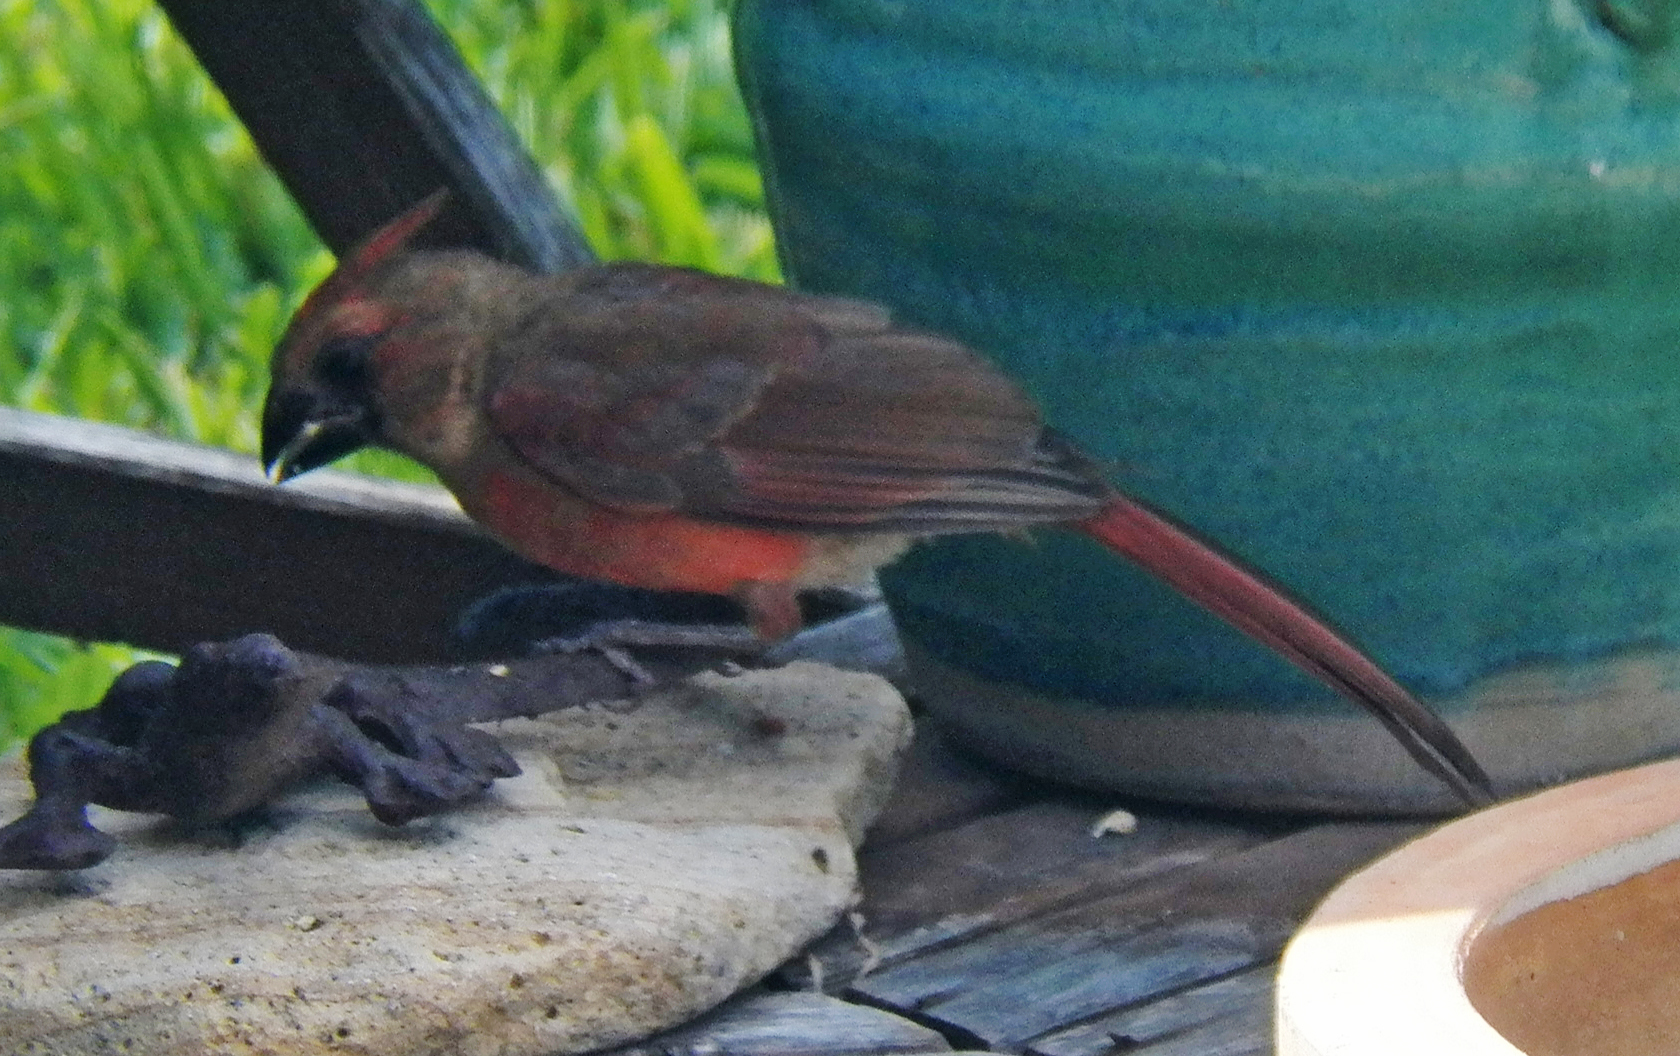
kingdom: Animalia
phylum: Chordata
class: Aves
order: Passeriformes
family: Cardinalidae
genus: Cardinalis
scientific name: Cardinalis cardinalis
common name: Northern cardinal
